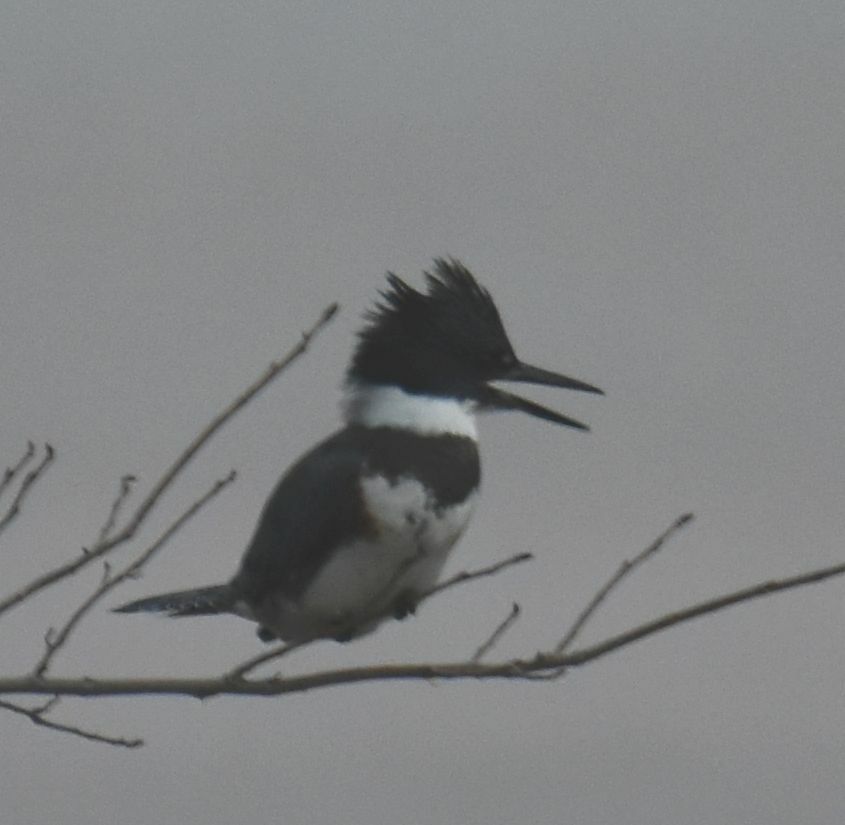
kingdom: Animalia
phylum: Chordata
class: Aves
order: Coraciiformes
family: Alcedinidae
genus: Megaceryle
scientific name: Megaceryle alcyon
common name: Belted kingfisher
